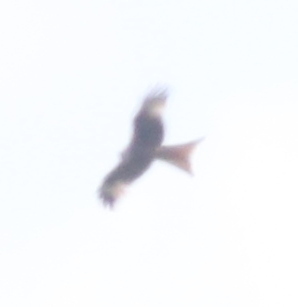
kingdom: Animalia
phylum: Chordata
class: Aves
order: Accipitriformes
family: Accipitridae
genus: Milvus
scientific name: Milvus milvus
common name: Red kite
